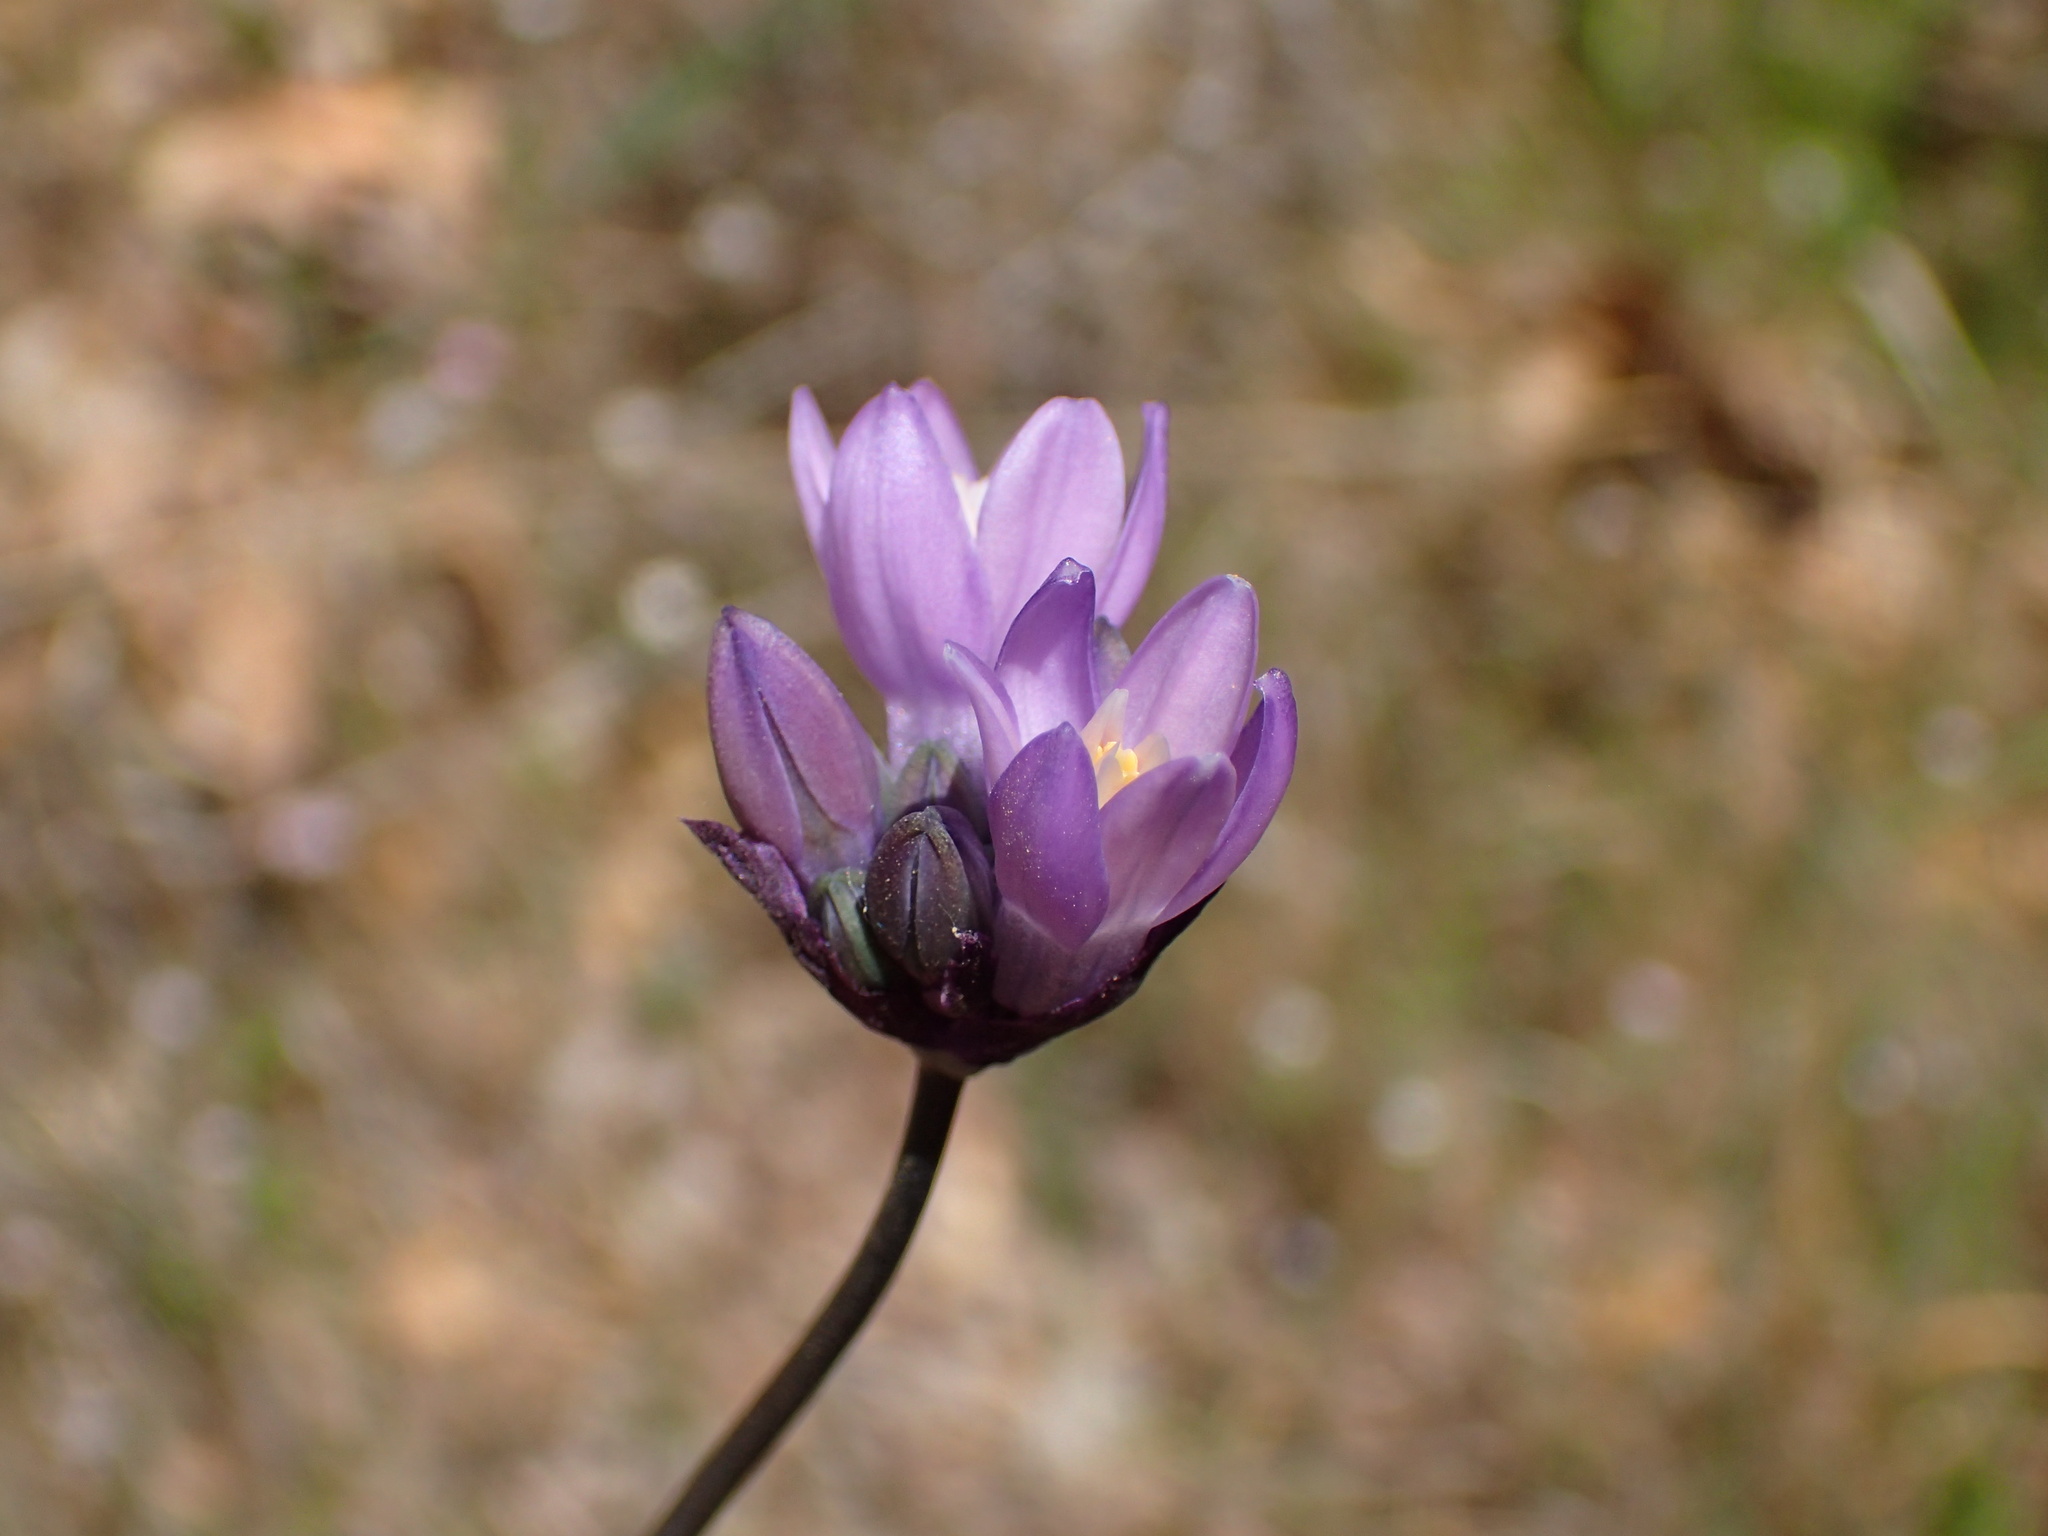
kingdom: Plantae
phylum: Tracheophyta
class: Liliopsida
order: Asparagales
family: Asparagaceae
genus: Dipterostemon
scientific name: Dipterostemon capitatus
